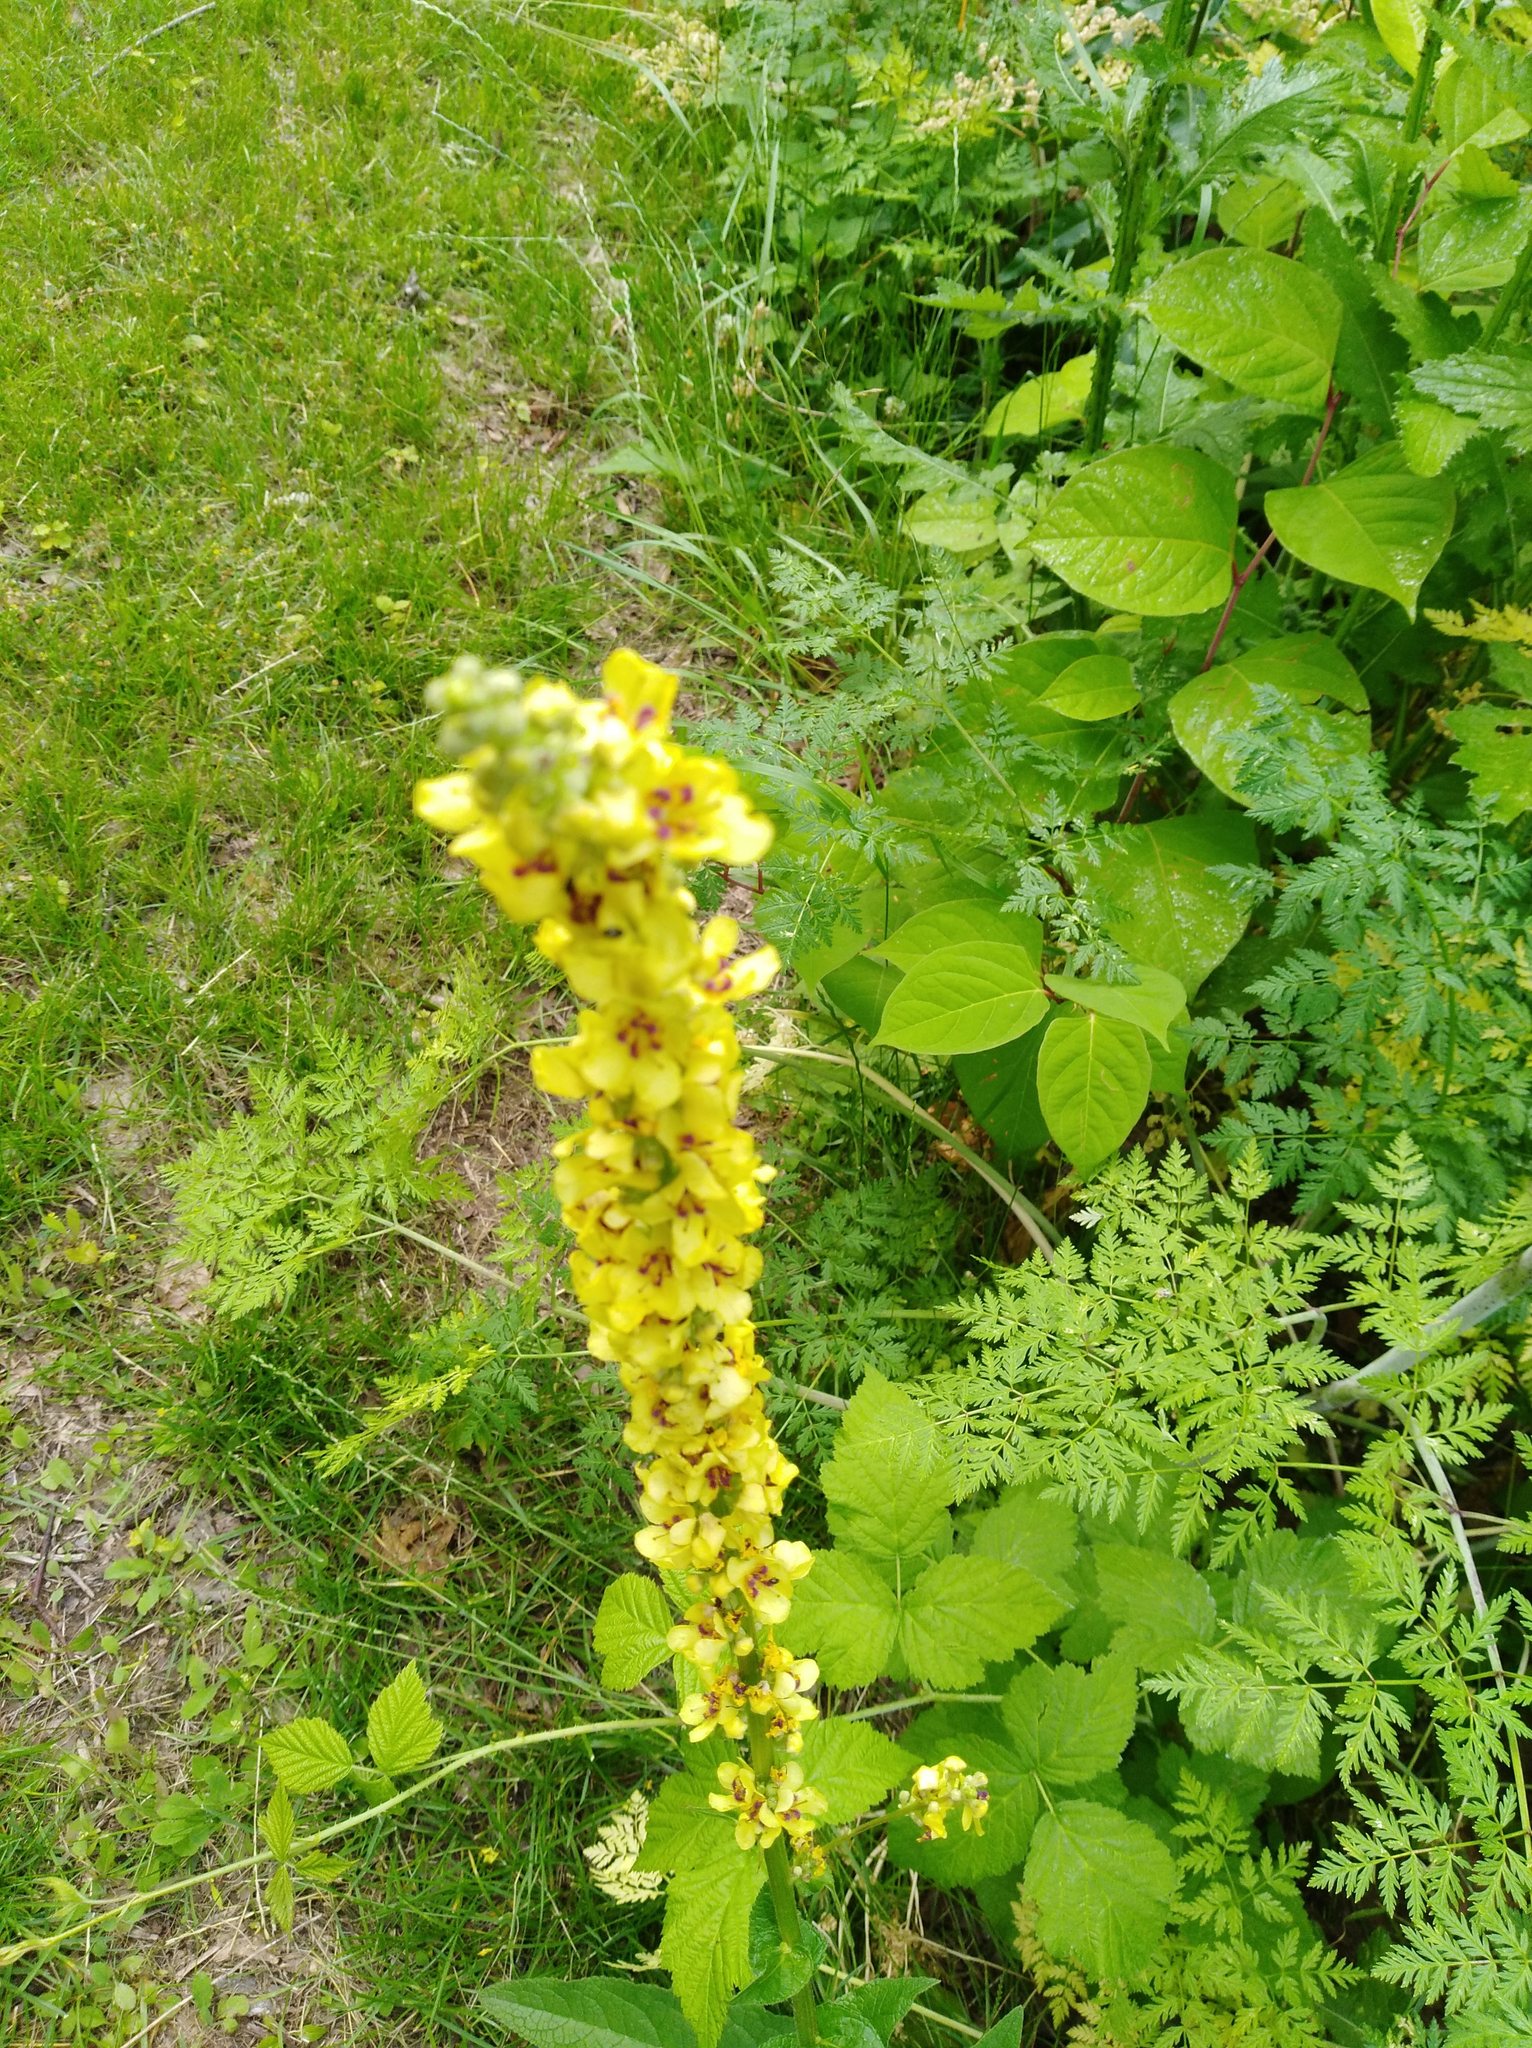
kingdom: Plantae
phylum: Tracheophyta
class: Magnoliopsida
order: Lamiales
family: Scrophulariaceae
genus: Verbascum
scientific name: Verbascum nigrum
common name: Dark mullein
